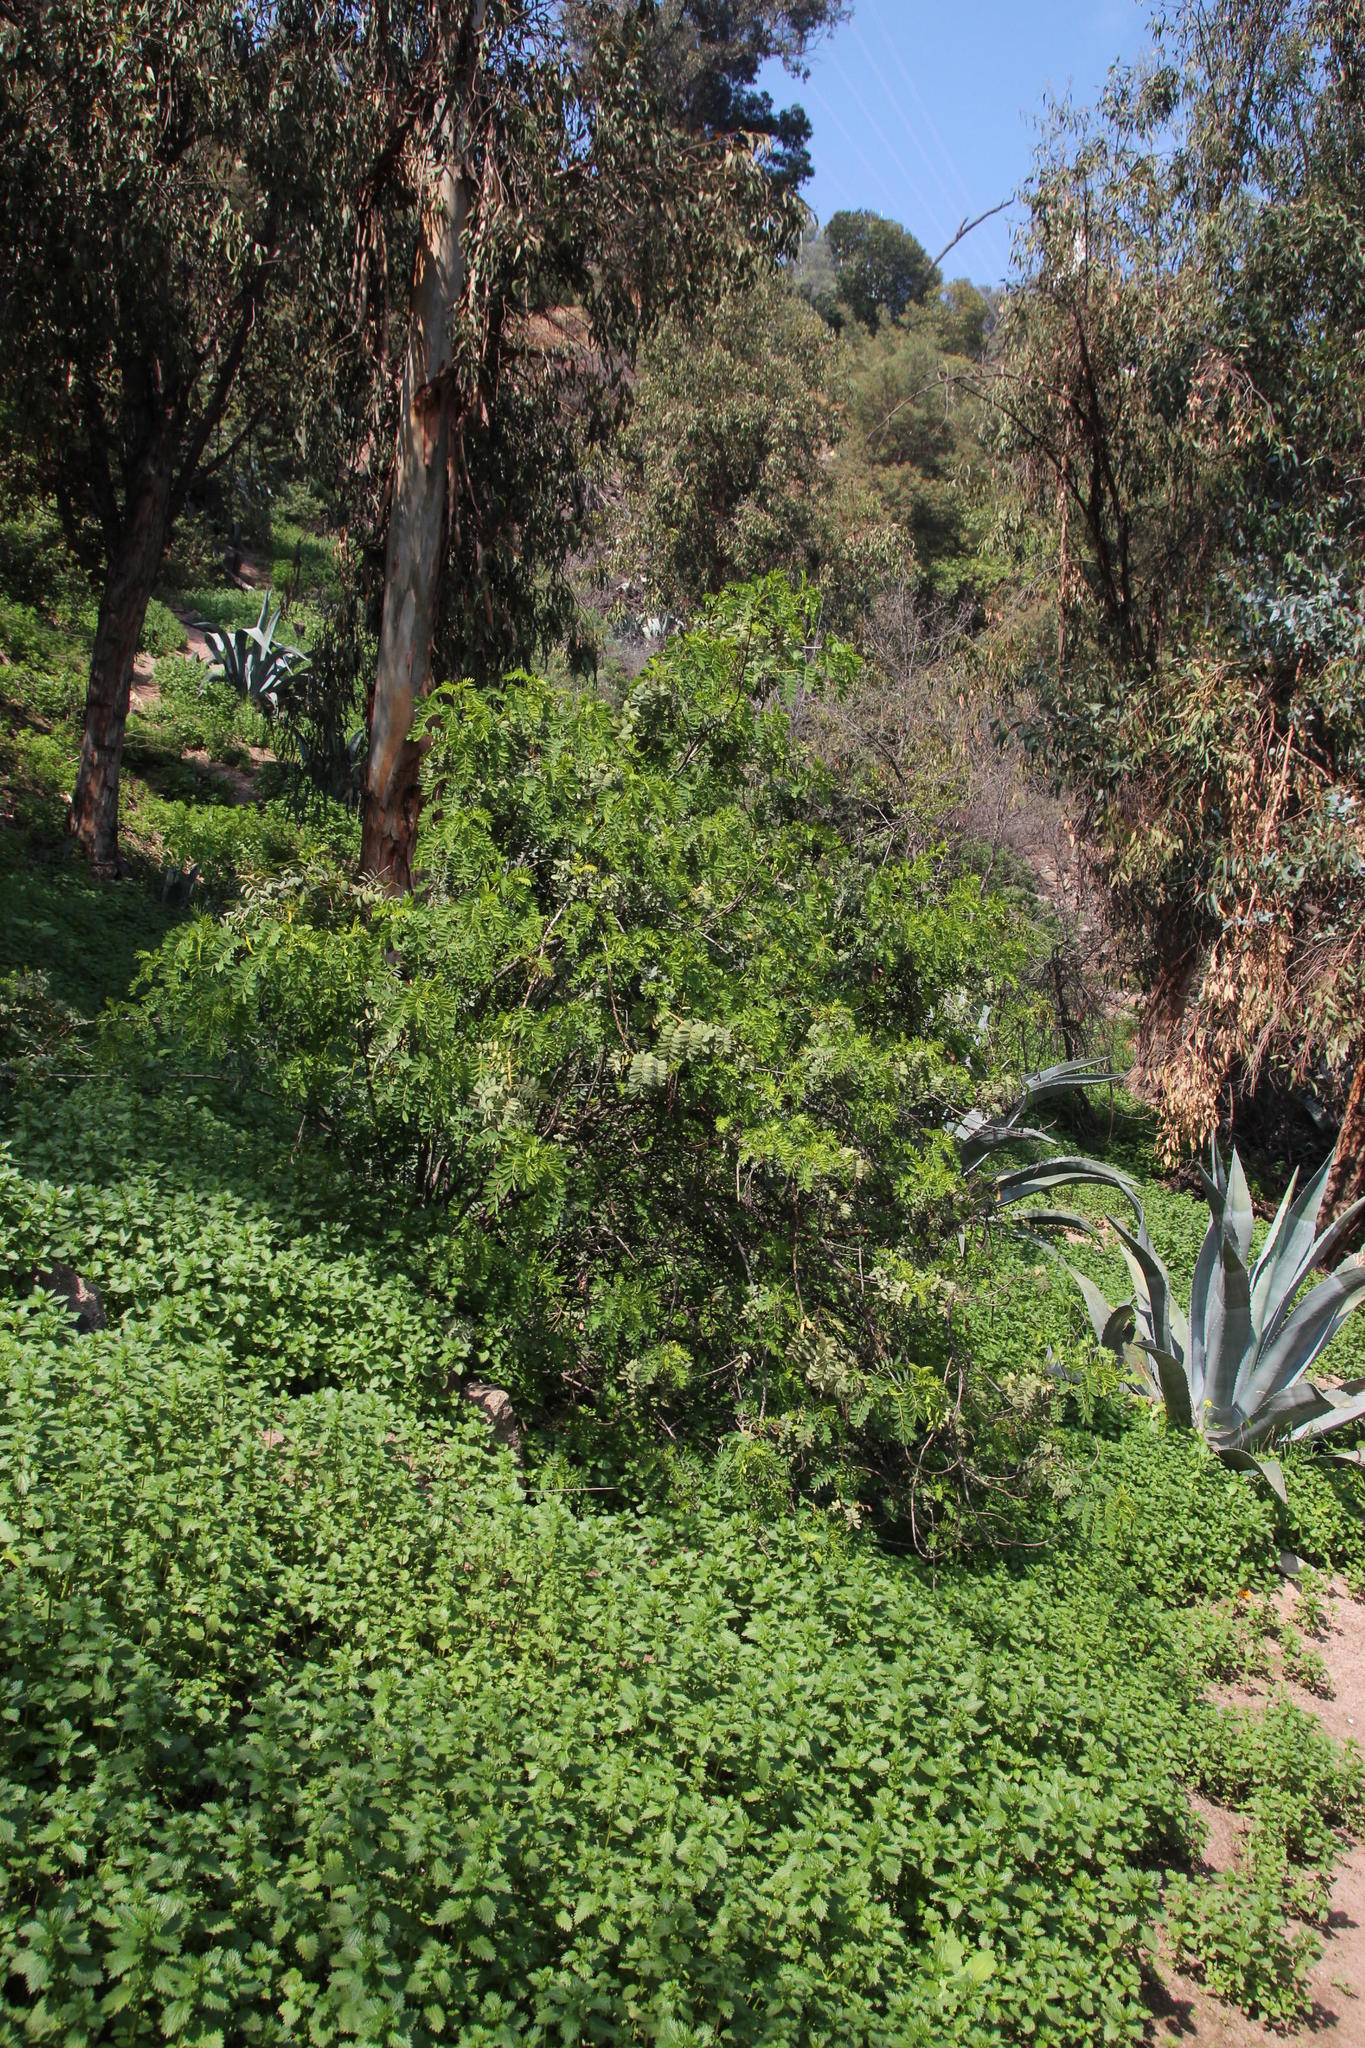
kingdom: Plantae
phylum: Tracheophyta
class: Magnoliopsida
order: Fabales
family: Fabaceae
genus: Robinia
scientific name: Robinia pseudoacacia
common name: Black locust
